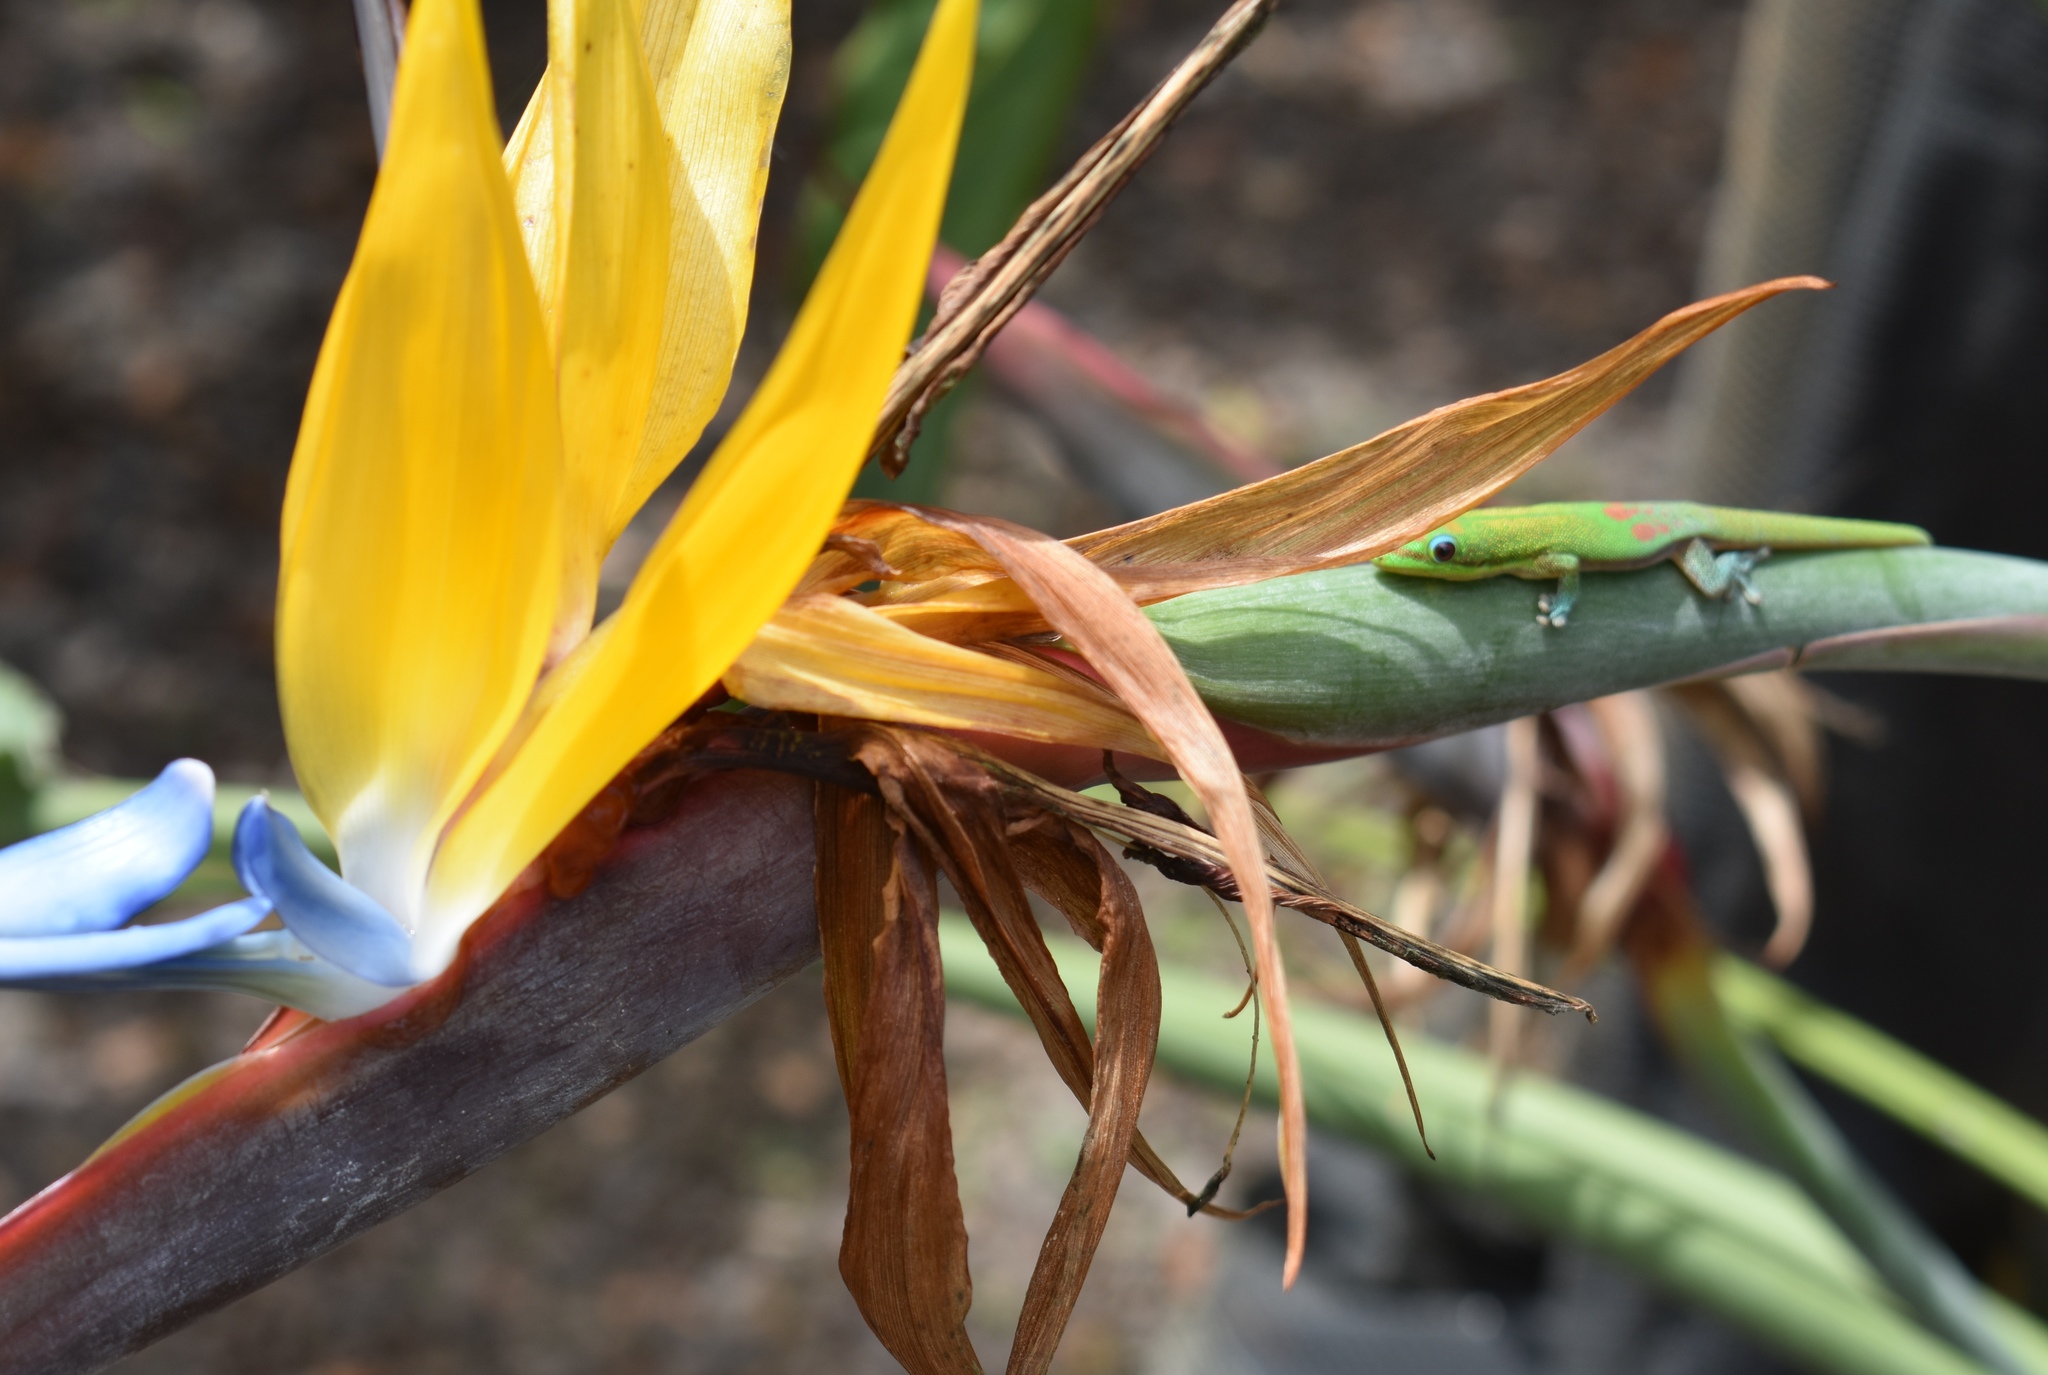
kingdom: Animalia
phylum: Chordata
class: Squamata
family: Gekkonidae
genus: Phelsuma
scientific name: Phelsuma laticauda
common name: Gold dust day gecko
